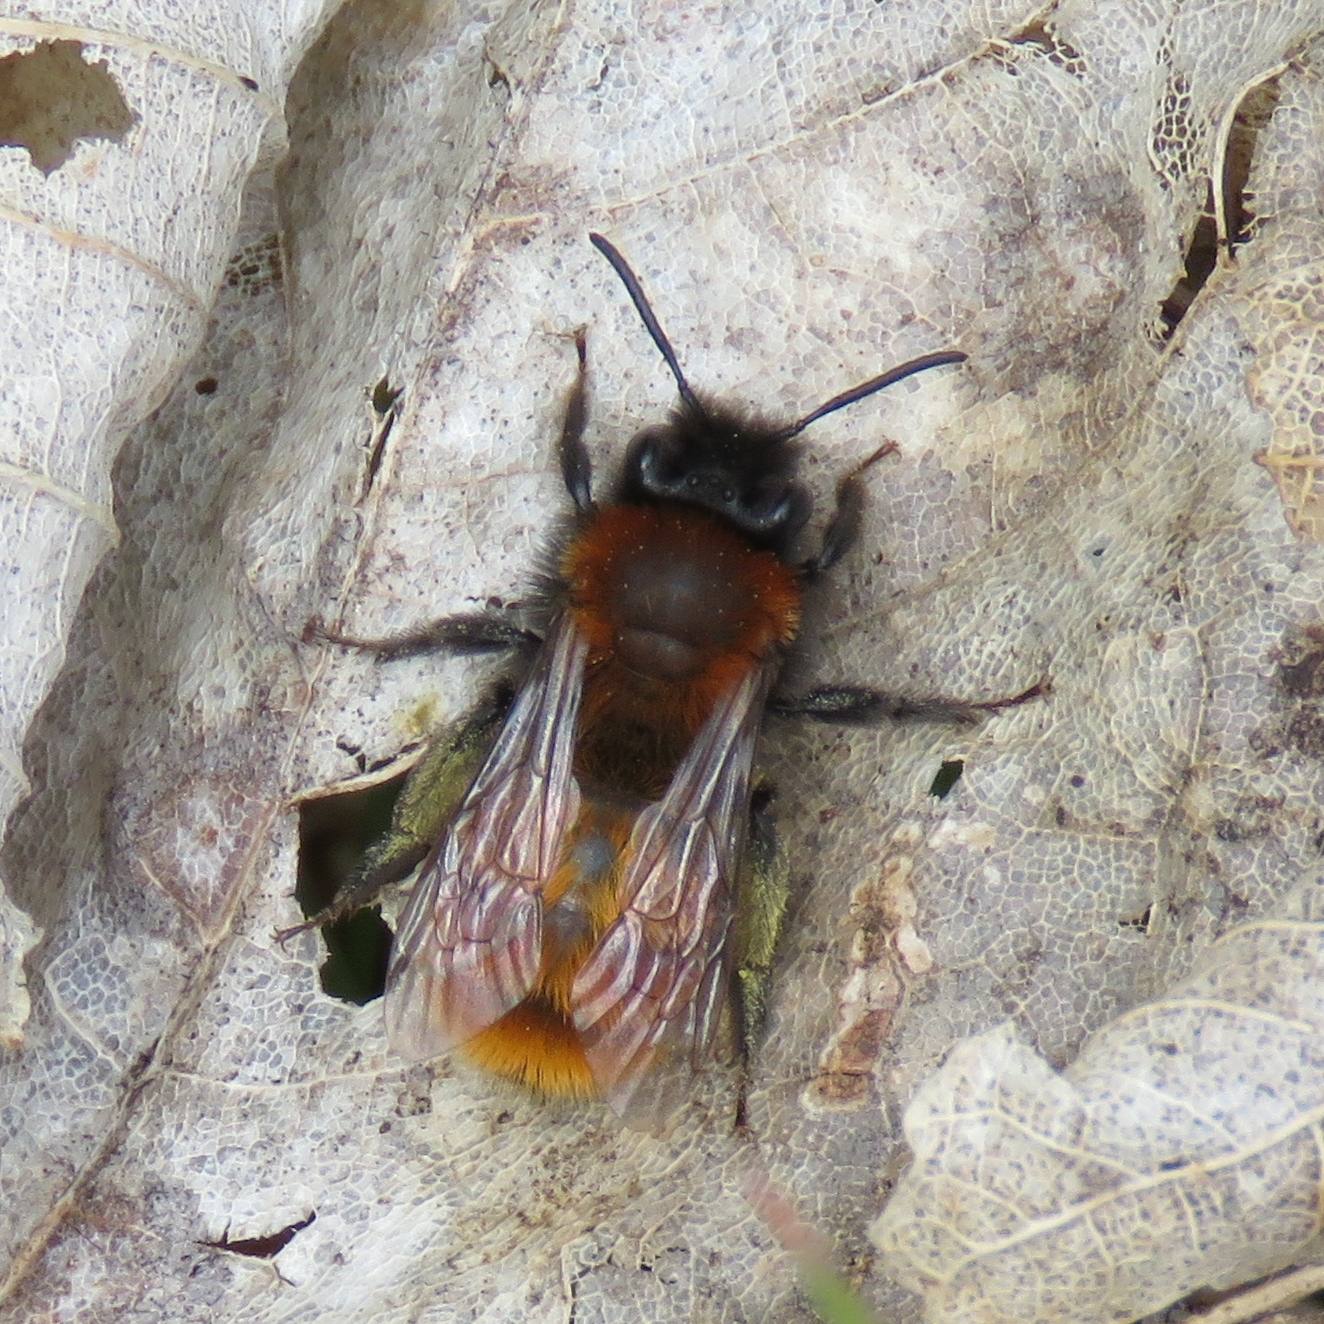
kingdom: Animalia
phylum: Arthropoda
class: Insecta
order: Hymenoptera
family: Andrenidae
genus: Andrena
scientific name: Andrena fulva
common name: Tawny mining bee
